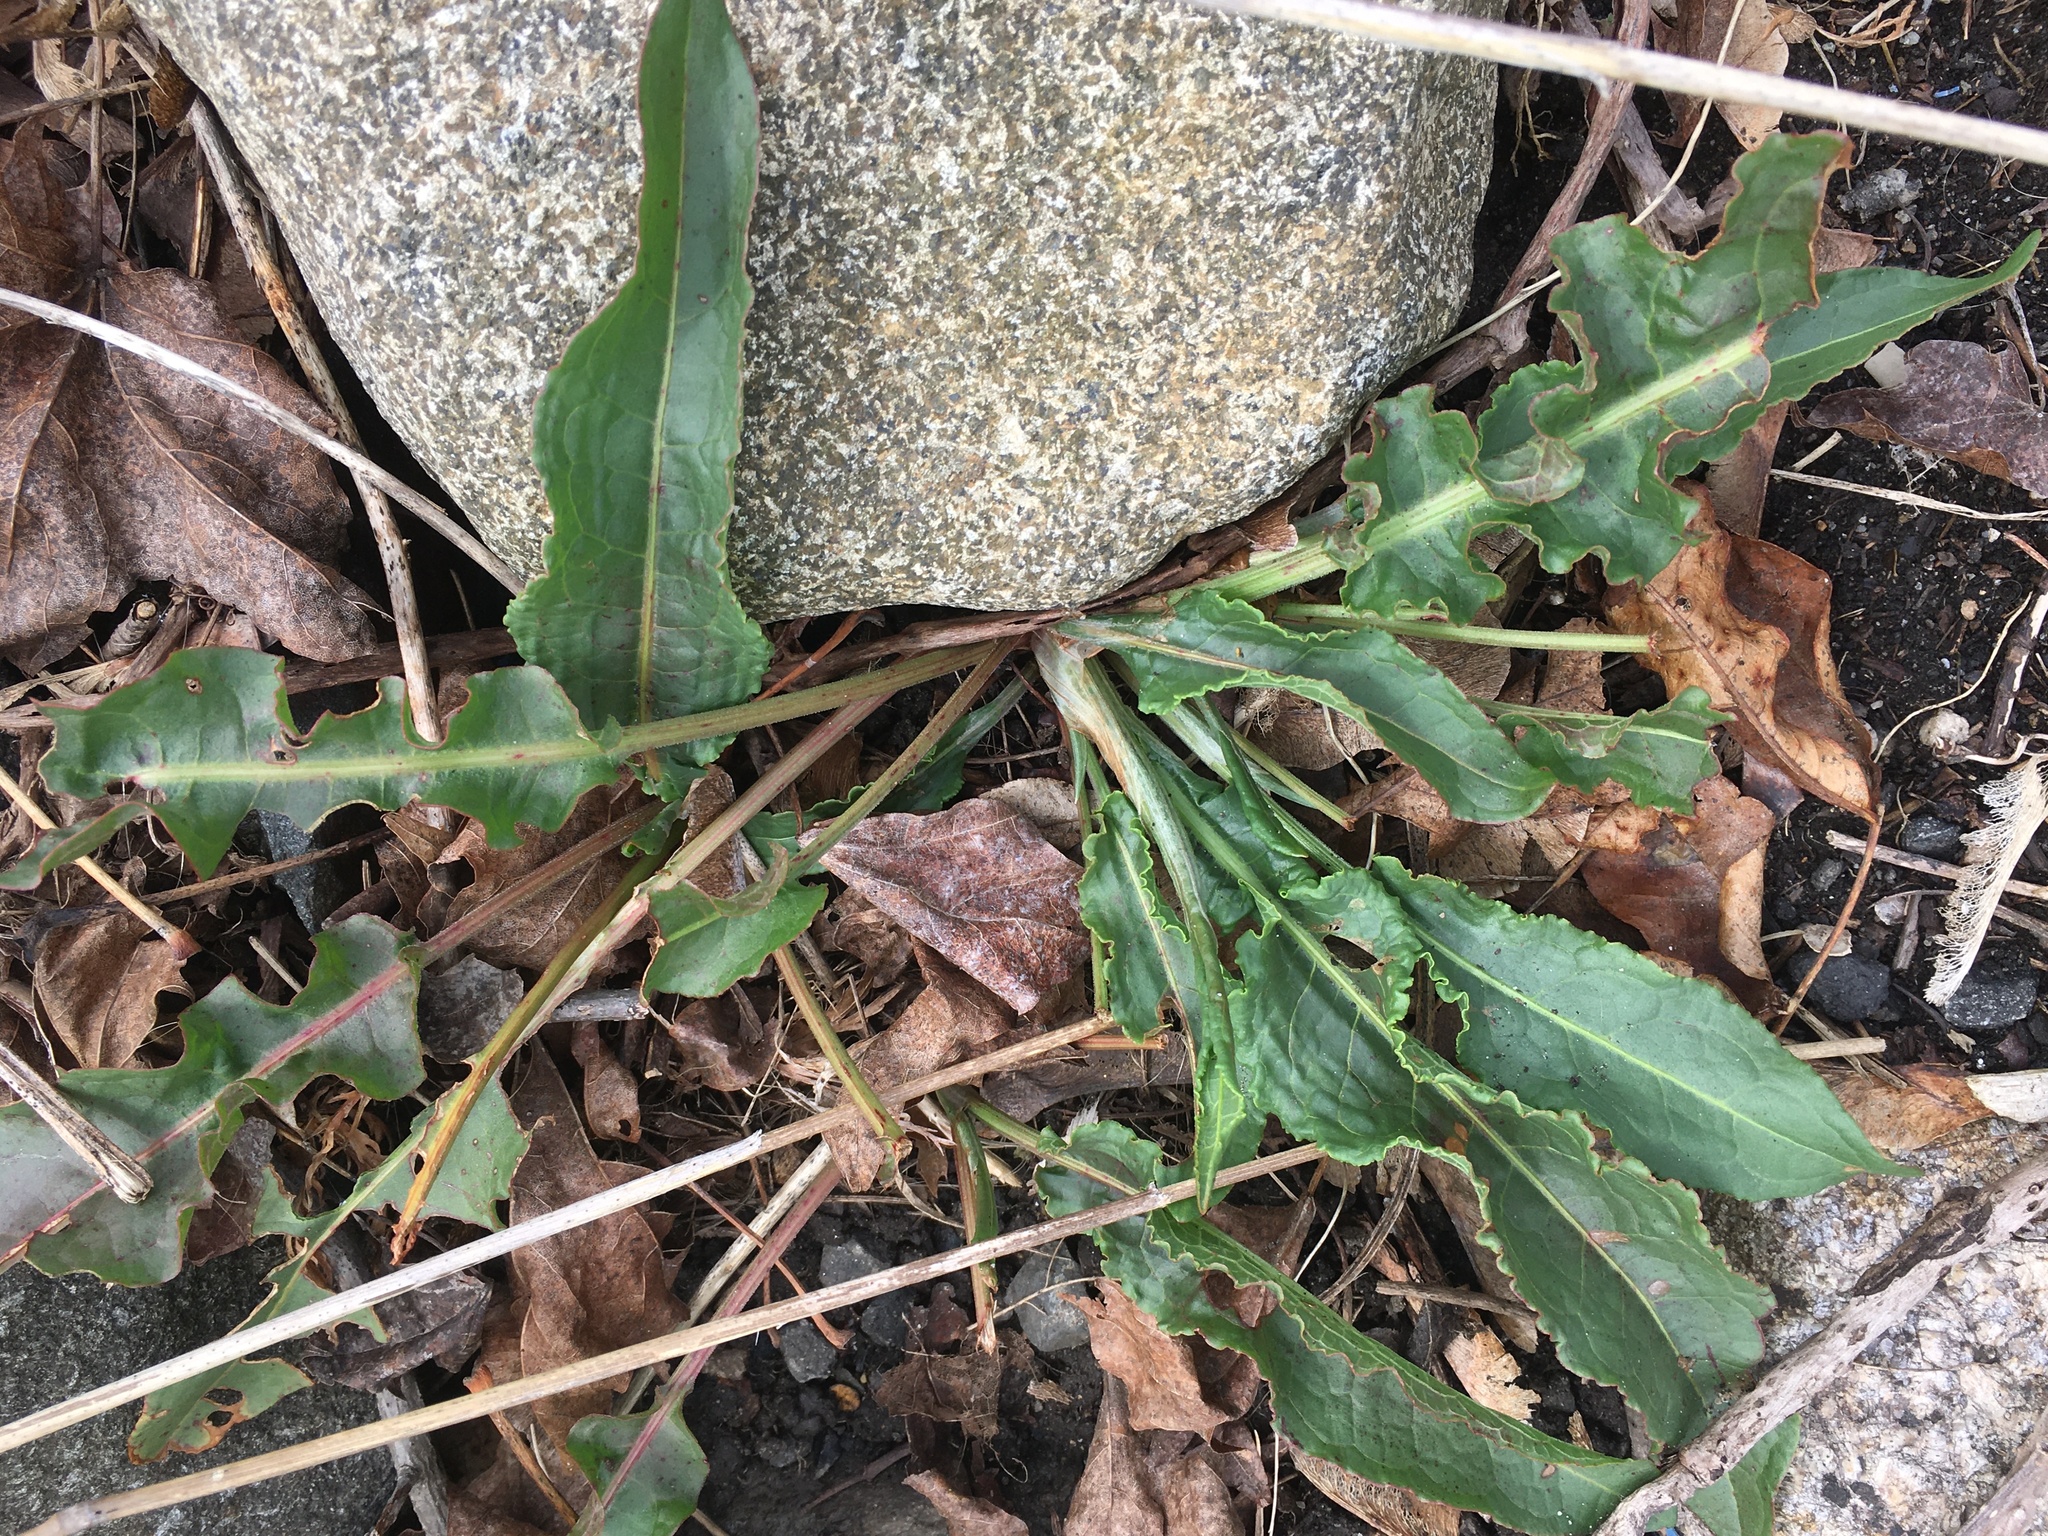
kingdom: Plantae
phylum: Tracheophyta
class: Magnoliopsida
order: Caryophyllales
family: Polygonaceae
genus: Rumex
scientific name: Rumex crispus
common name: Curled dock
